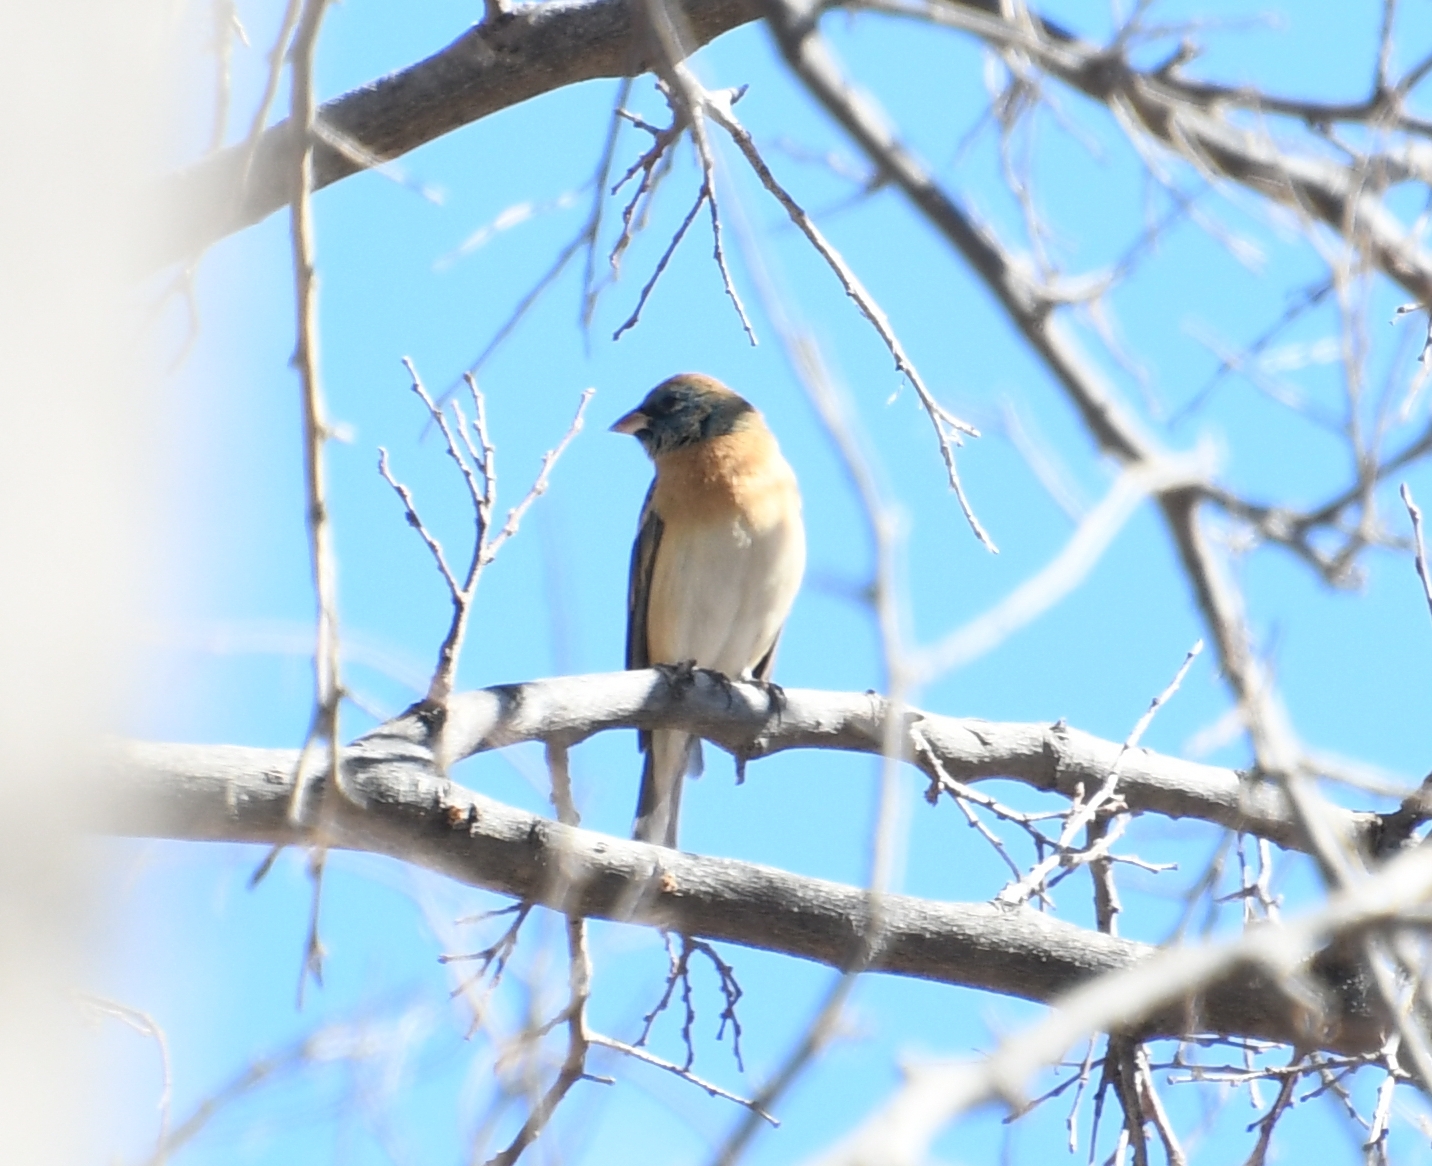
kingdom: Animalia
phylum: Chordata
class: Aves
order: Passeriformes
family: Cardinalidae
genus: Passerina
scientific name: Passerina amoena
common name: Lazuli bunting
